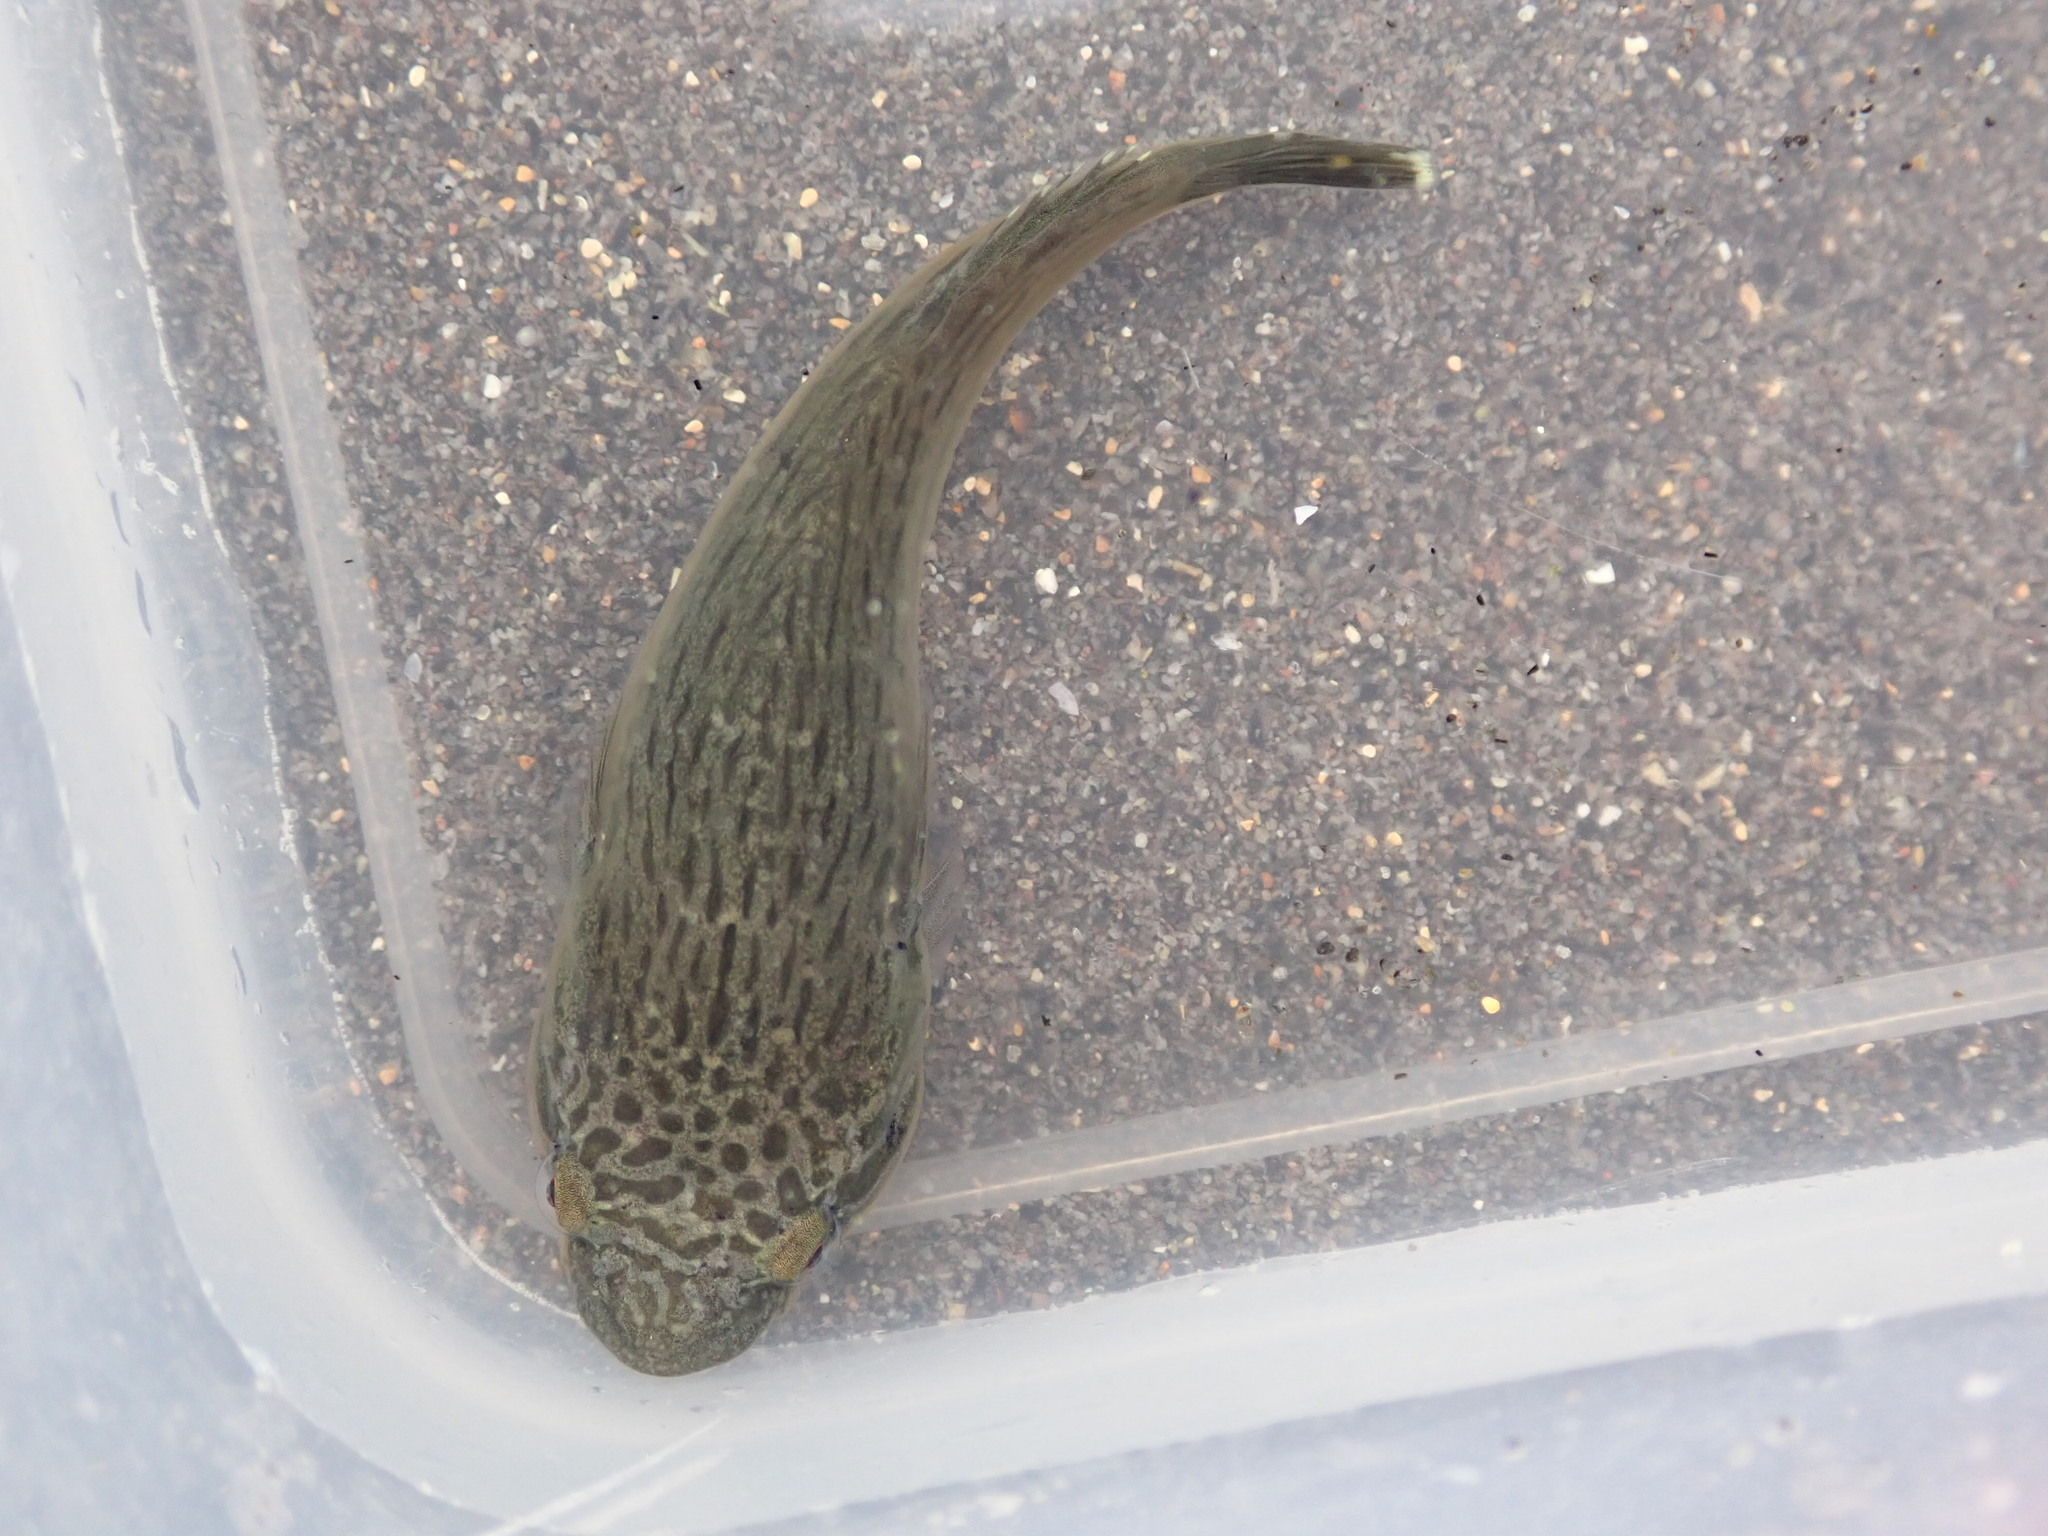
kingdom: Animalia
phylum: Chordata
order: Gobiesociformes
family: Gobiesocidae
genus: Trachelochismus
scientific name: Trachelochismus pinnulatus
